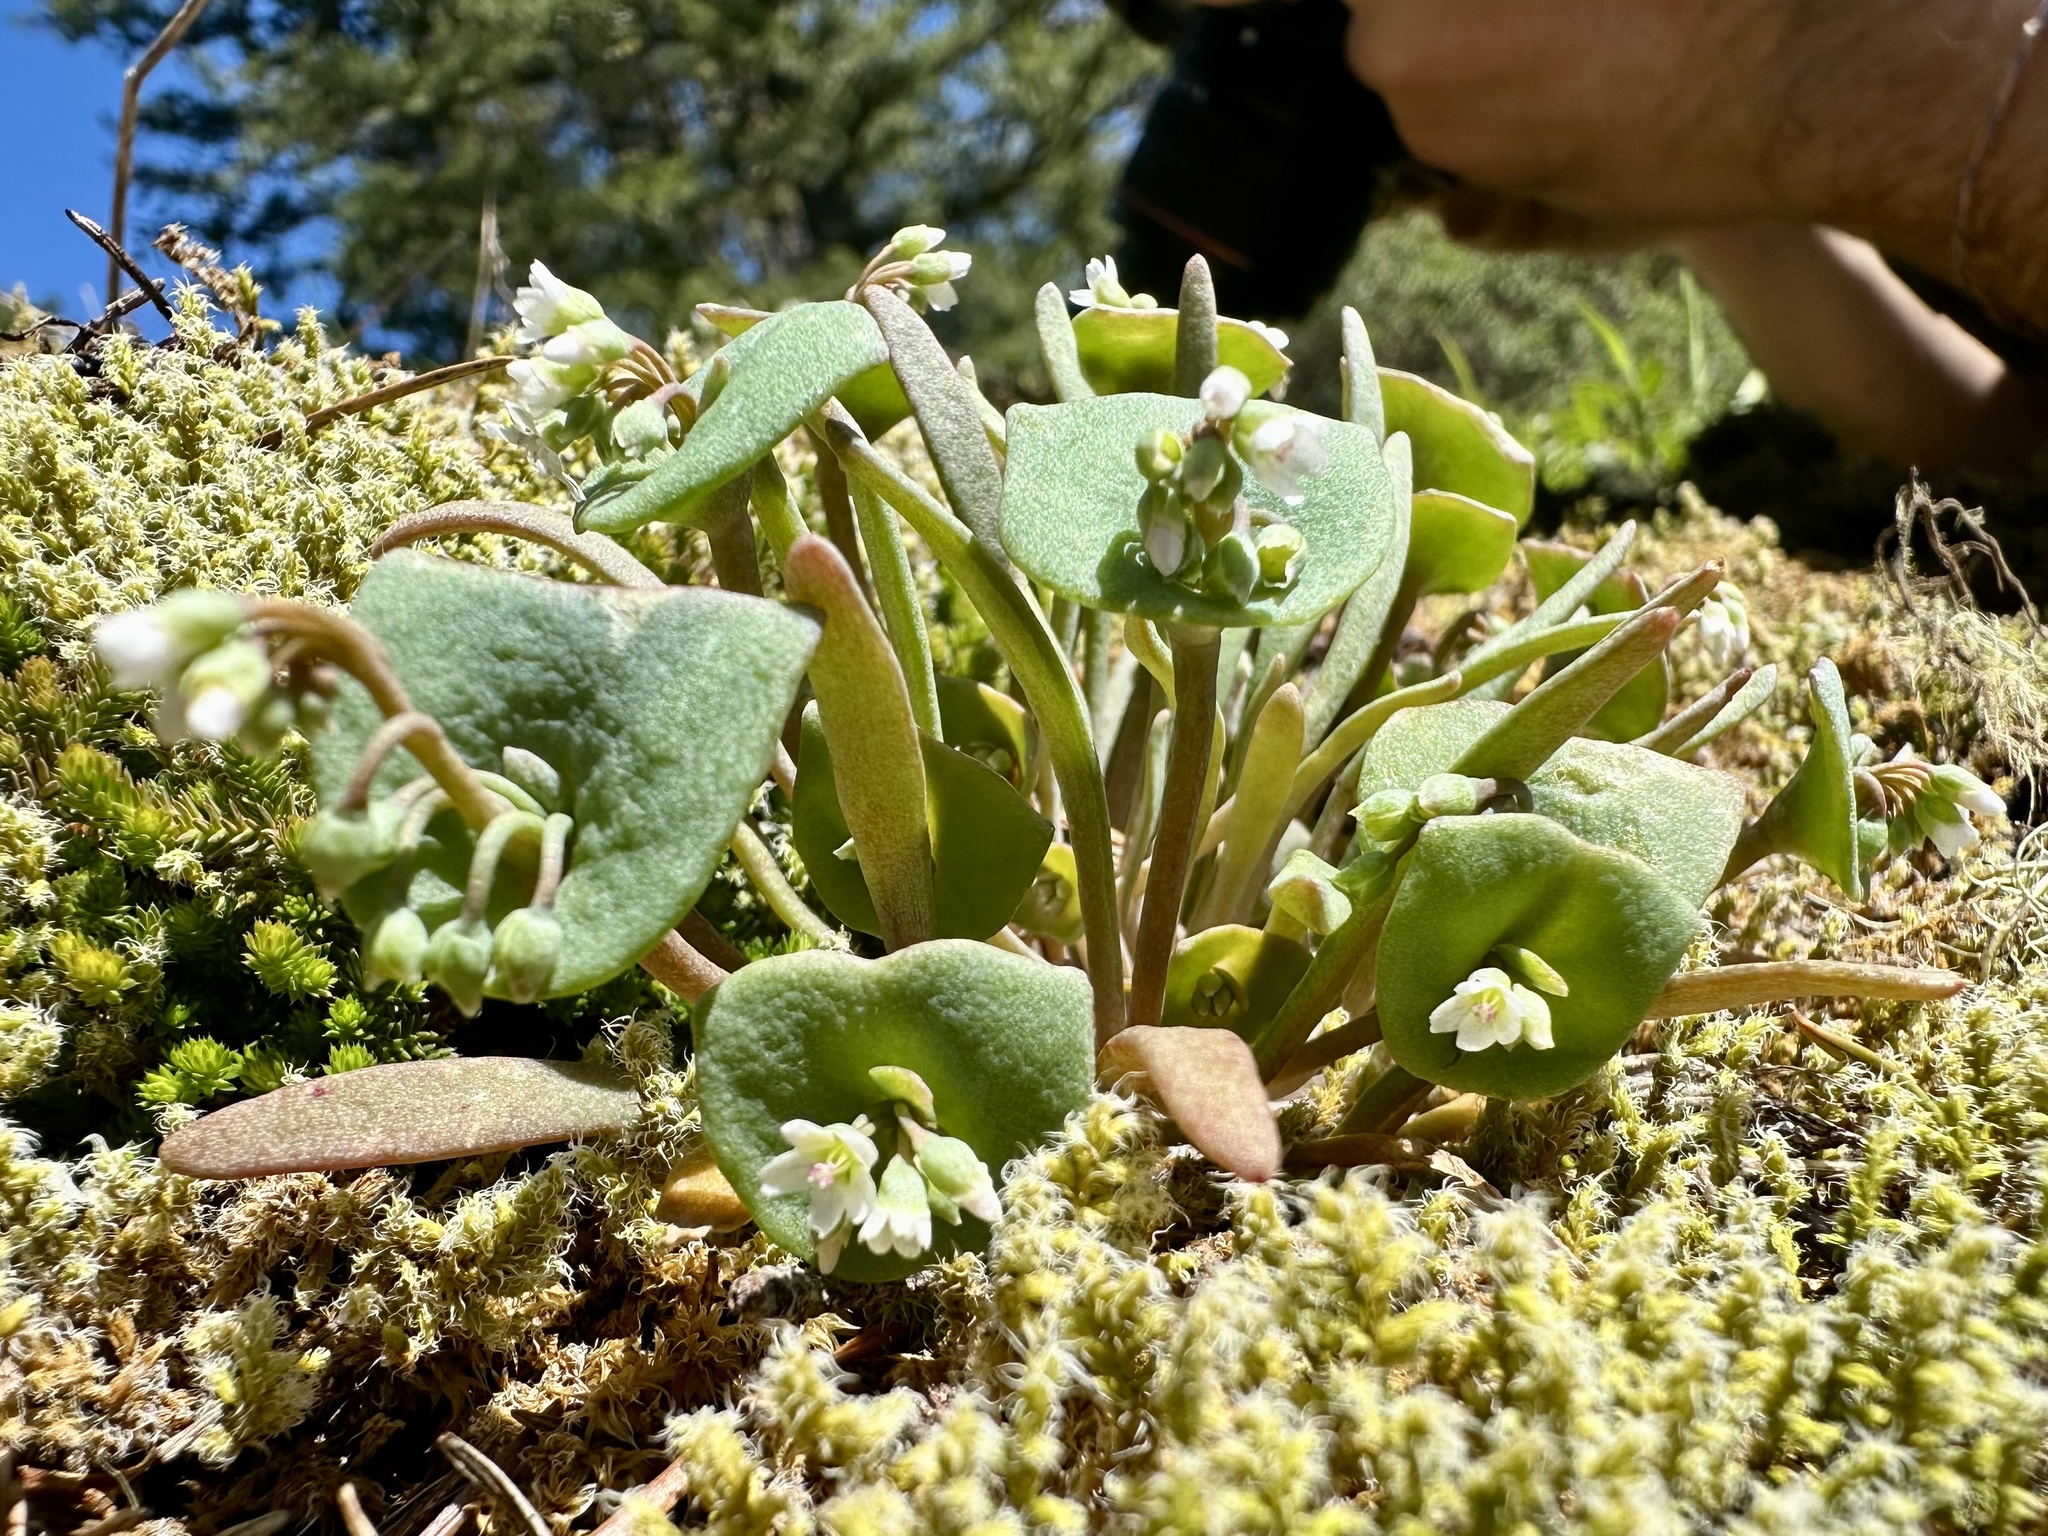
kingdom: Plantae
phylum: Tracheophyta
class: Magnoliopsida
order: Caryophyllales
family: Montiaceae
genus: Claytonia
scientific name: Claytonia exigua
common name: Pale spring beauty
